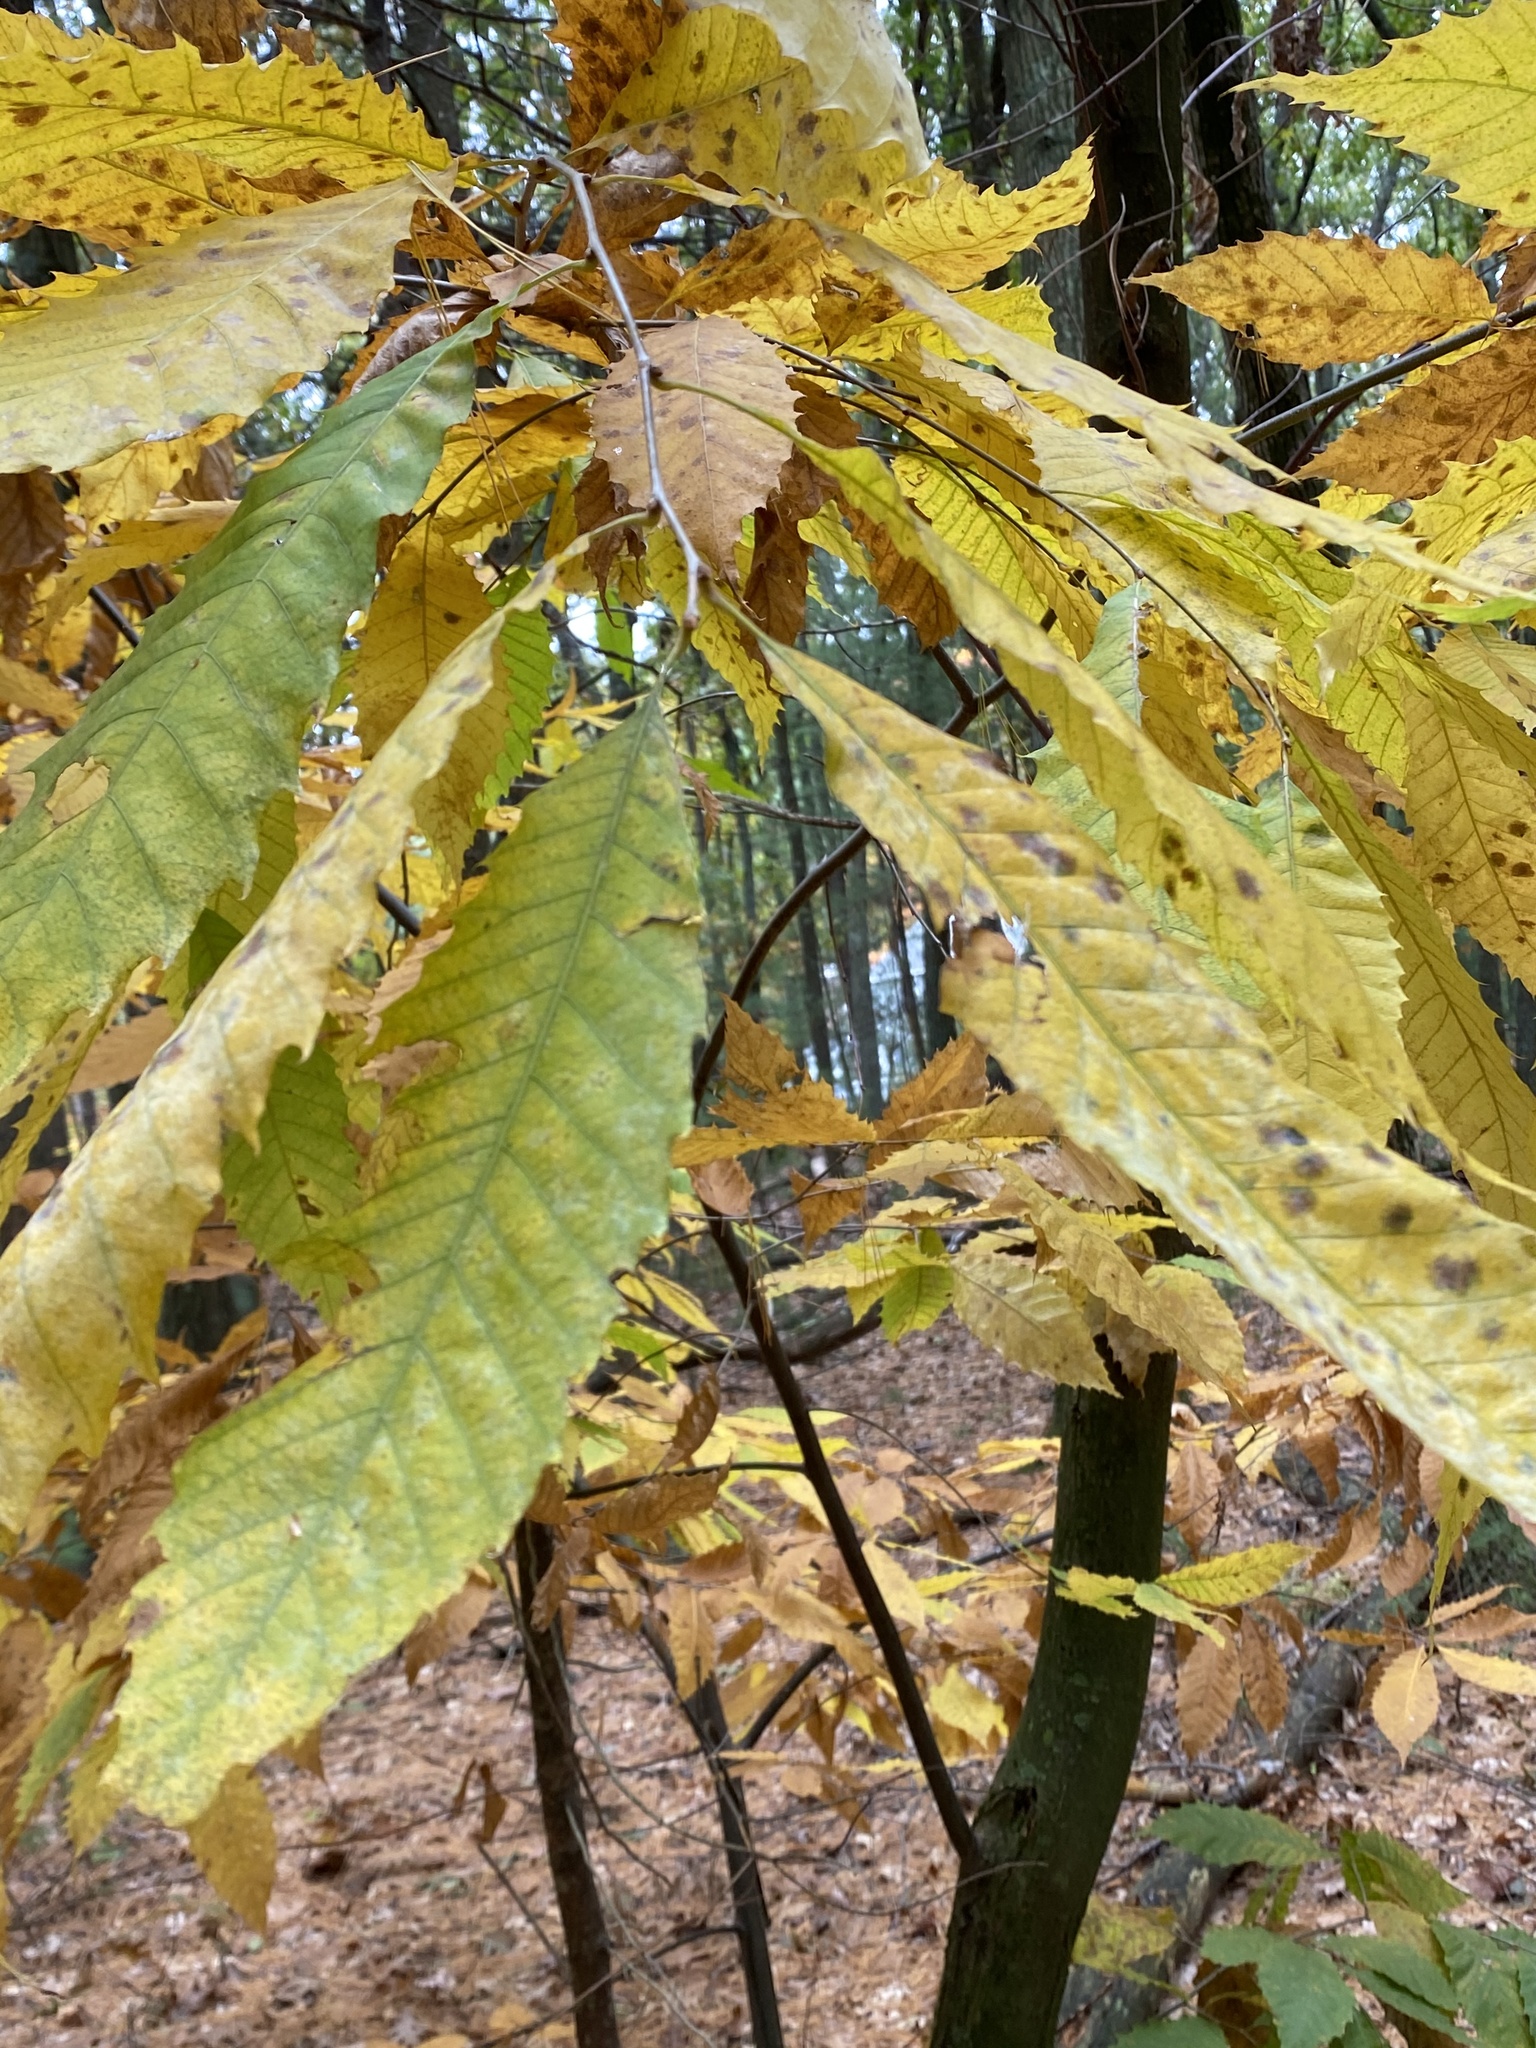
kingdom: Plantae
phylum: Tracheophyta
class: Magnoliopsida
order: Fagales
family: Fagaceae
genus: Castanea
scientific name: Castanea dentata
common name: American chestnut
